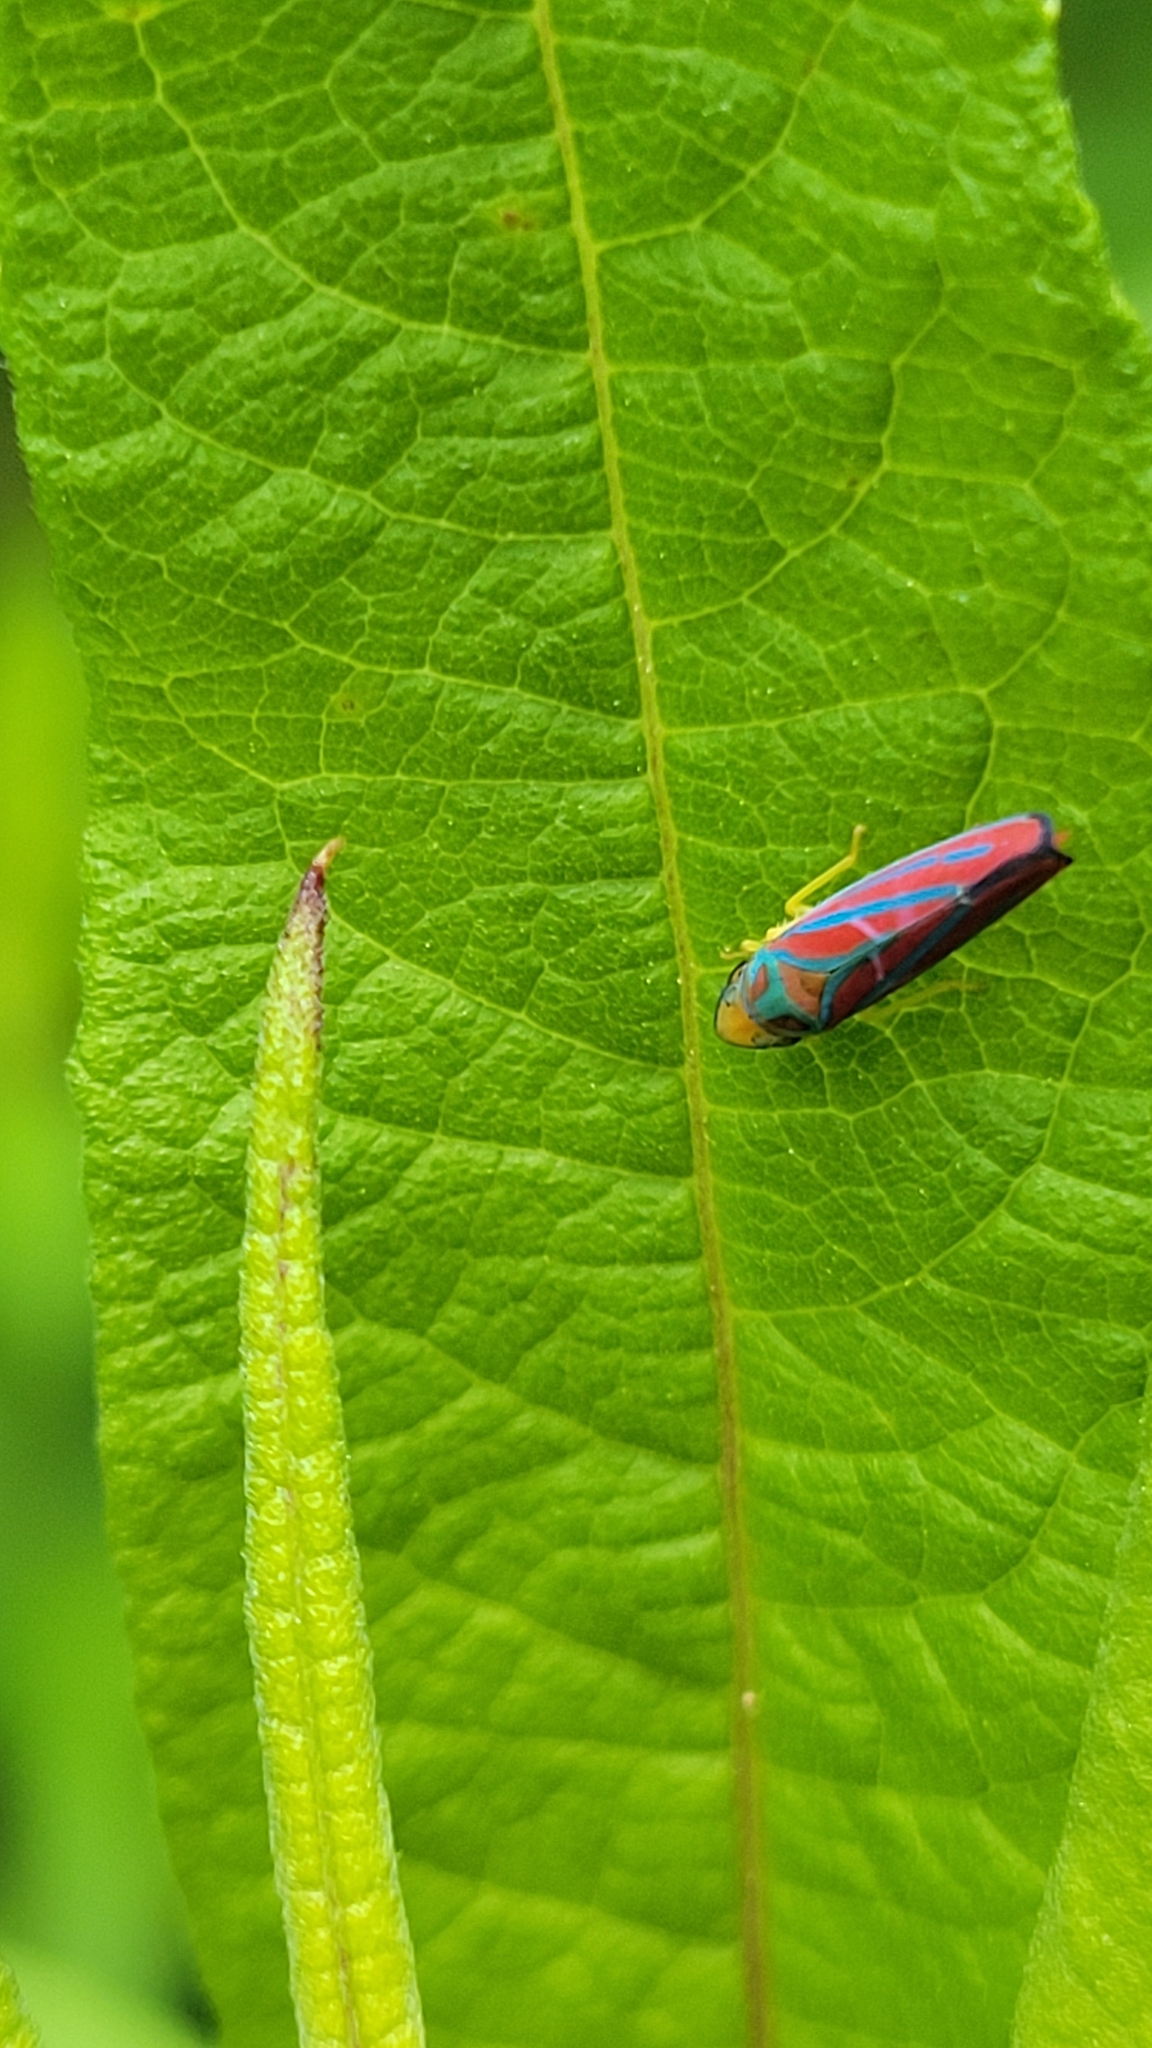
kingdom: Animalia
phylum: Arthropoda
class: Insecta
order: Hemiptera
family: Cicadellidae
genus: Graphocephala
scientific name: Graphocephala coccinea
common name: Candy-striped leafhopper
